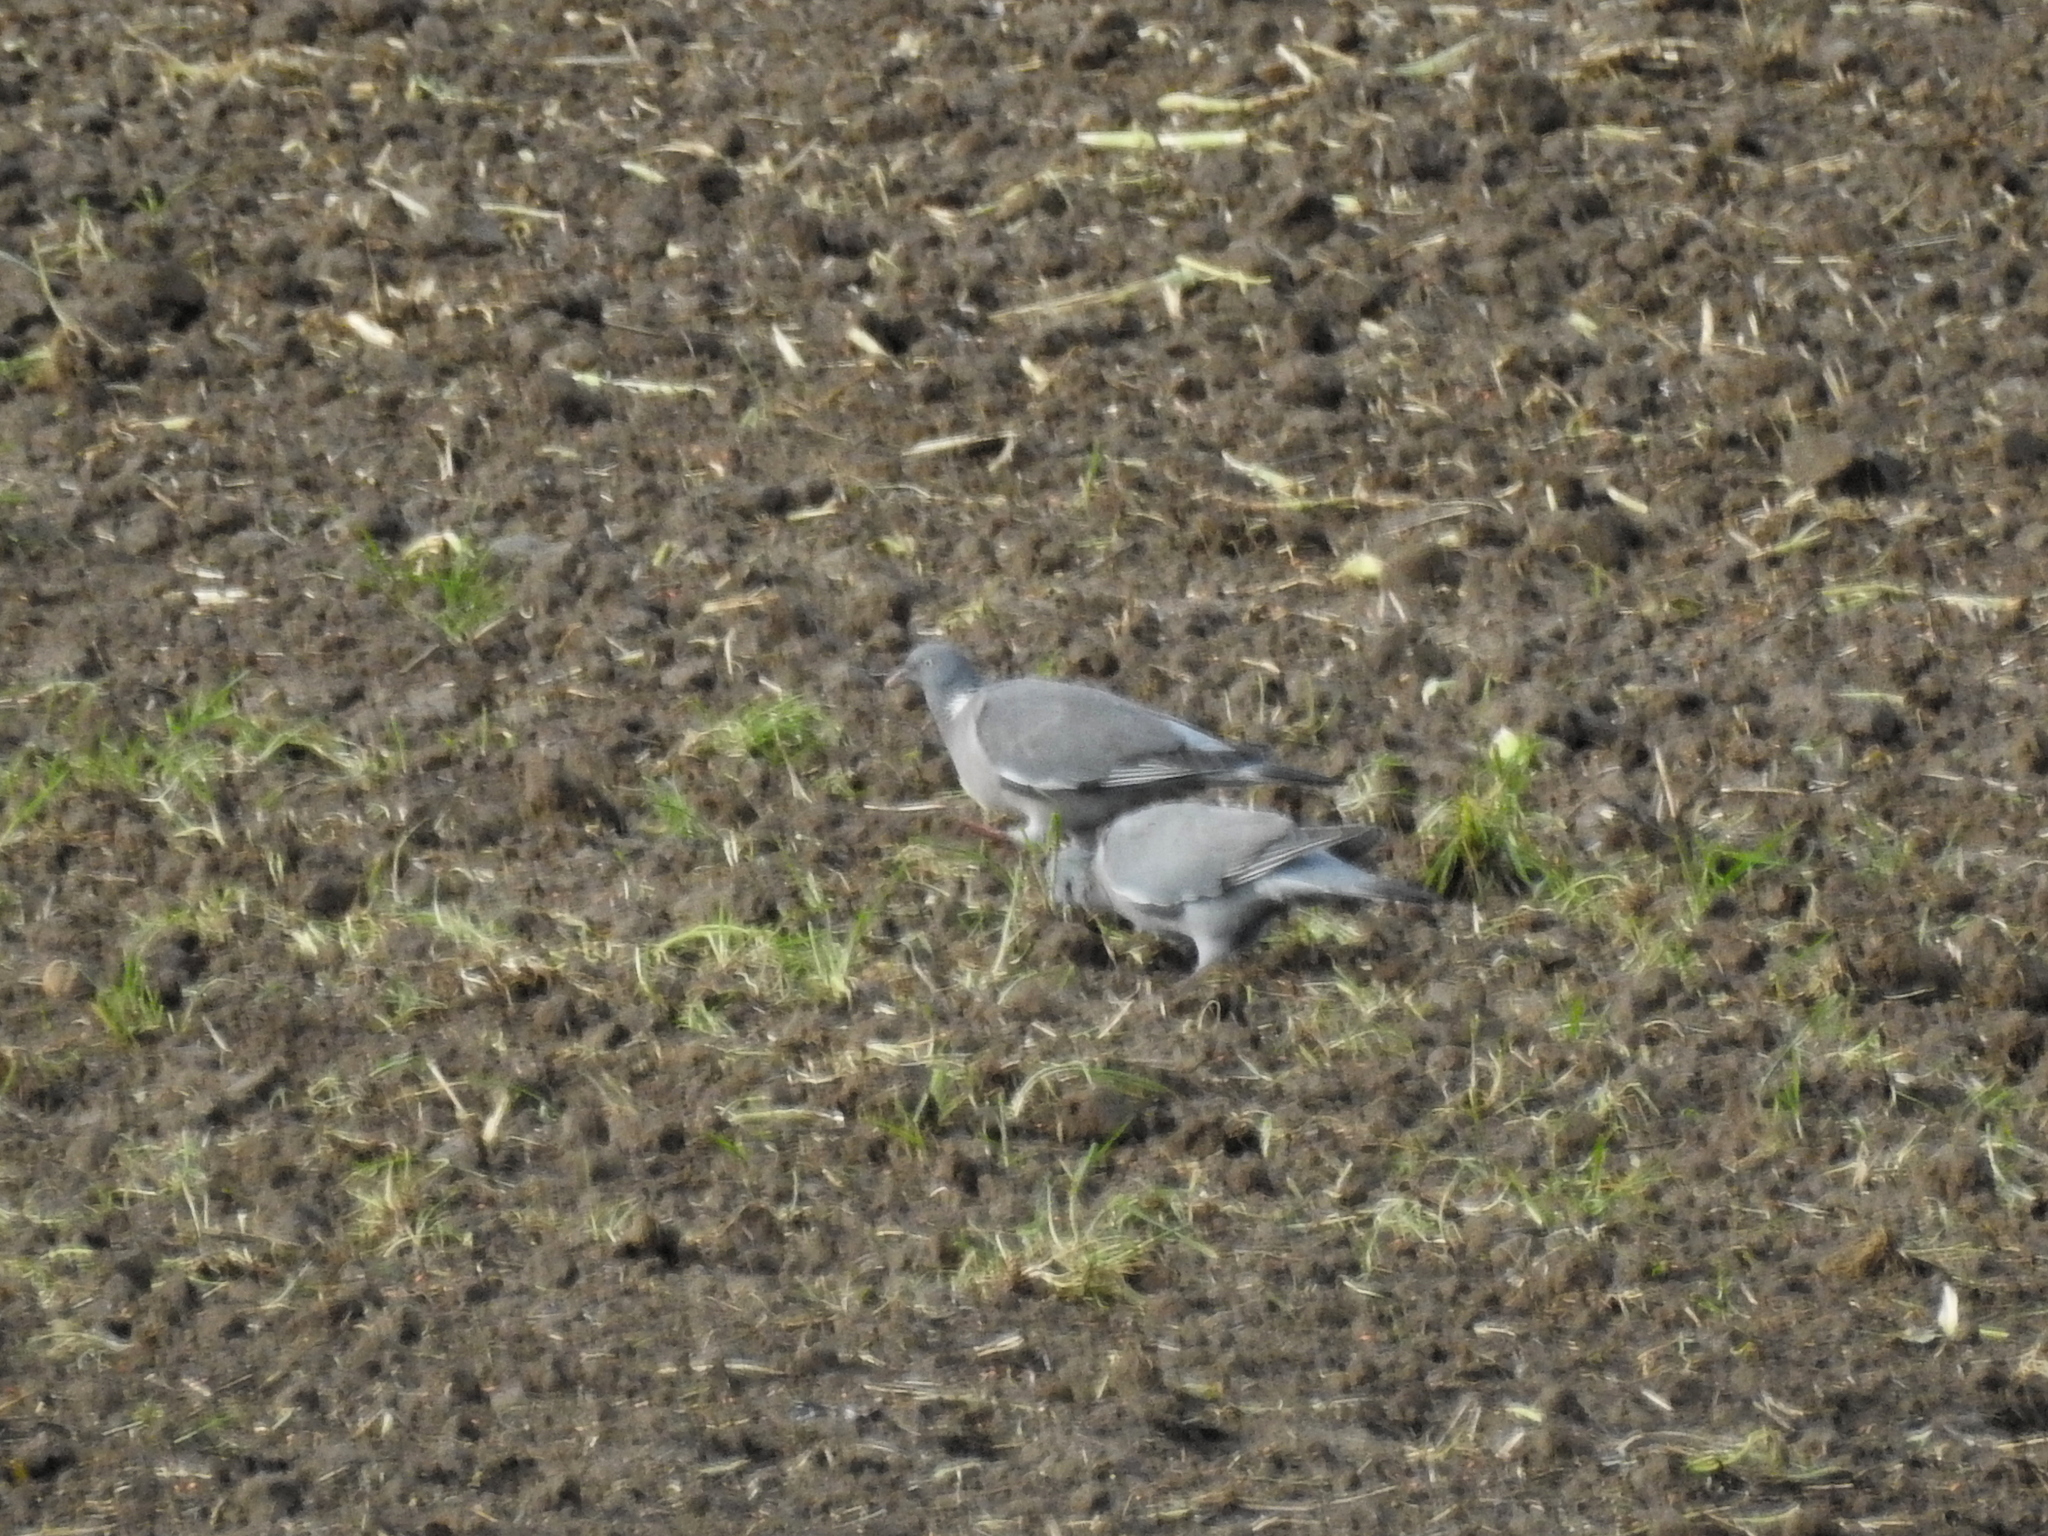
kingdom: Animalia
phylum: Chordata
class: Aves
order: Columbiformes
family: Columbidae
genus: Columba
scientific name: Columba palumbus
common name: Common wood pigeon
